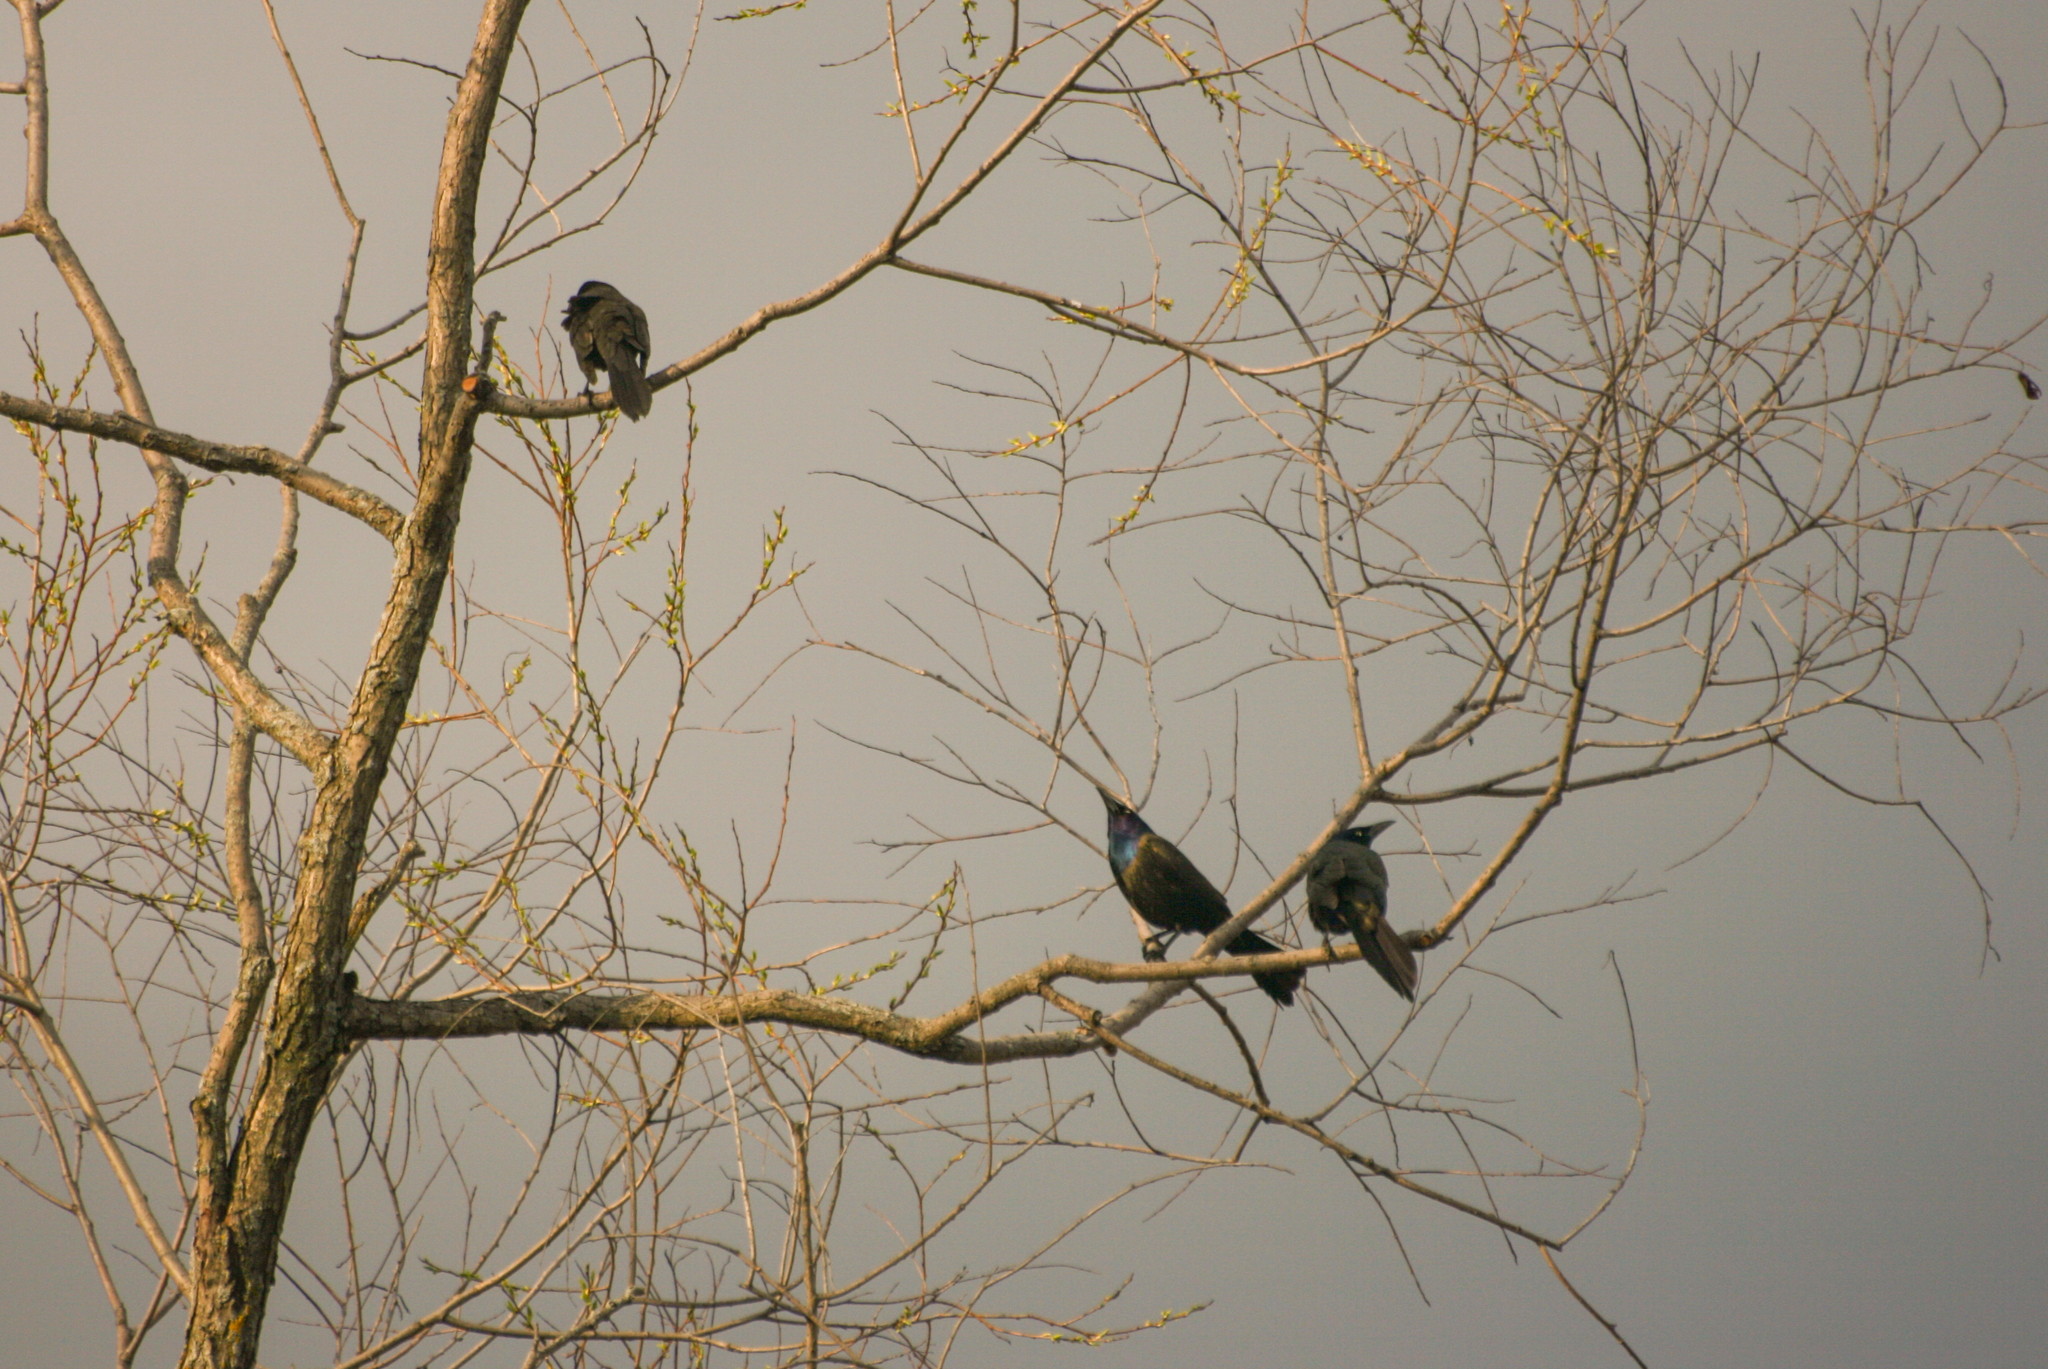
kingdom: Animalia
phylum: Chordata
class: Aves
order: Passeriformes
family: Icteridae
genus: Quiscalus
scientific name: Quiscalus quiscula
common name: Common grackle
